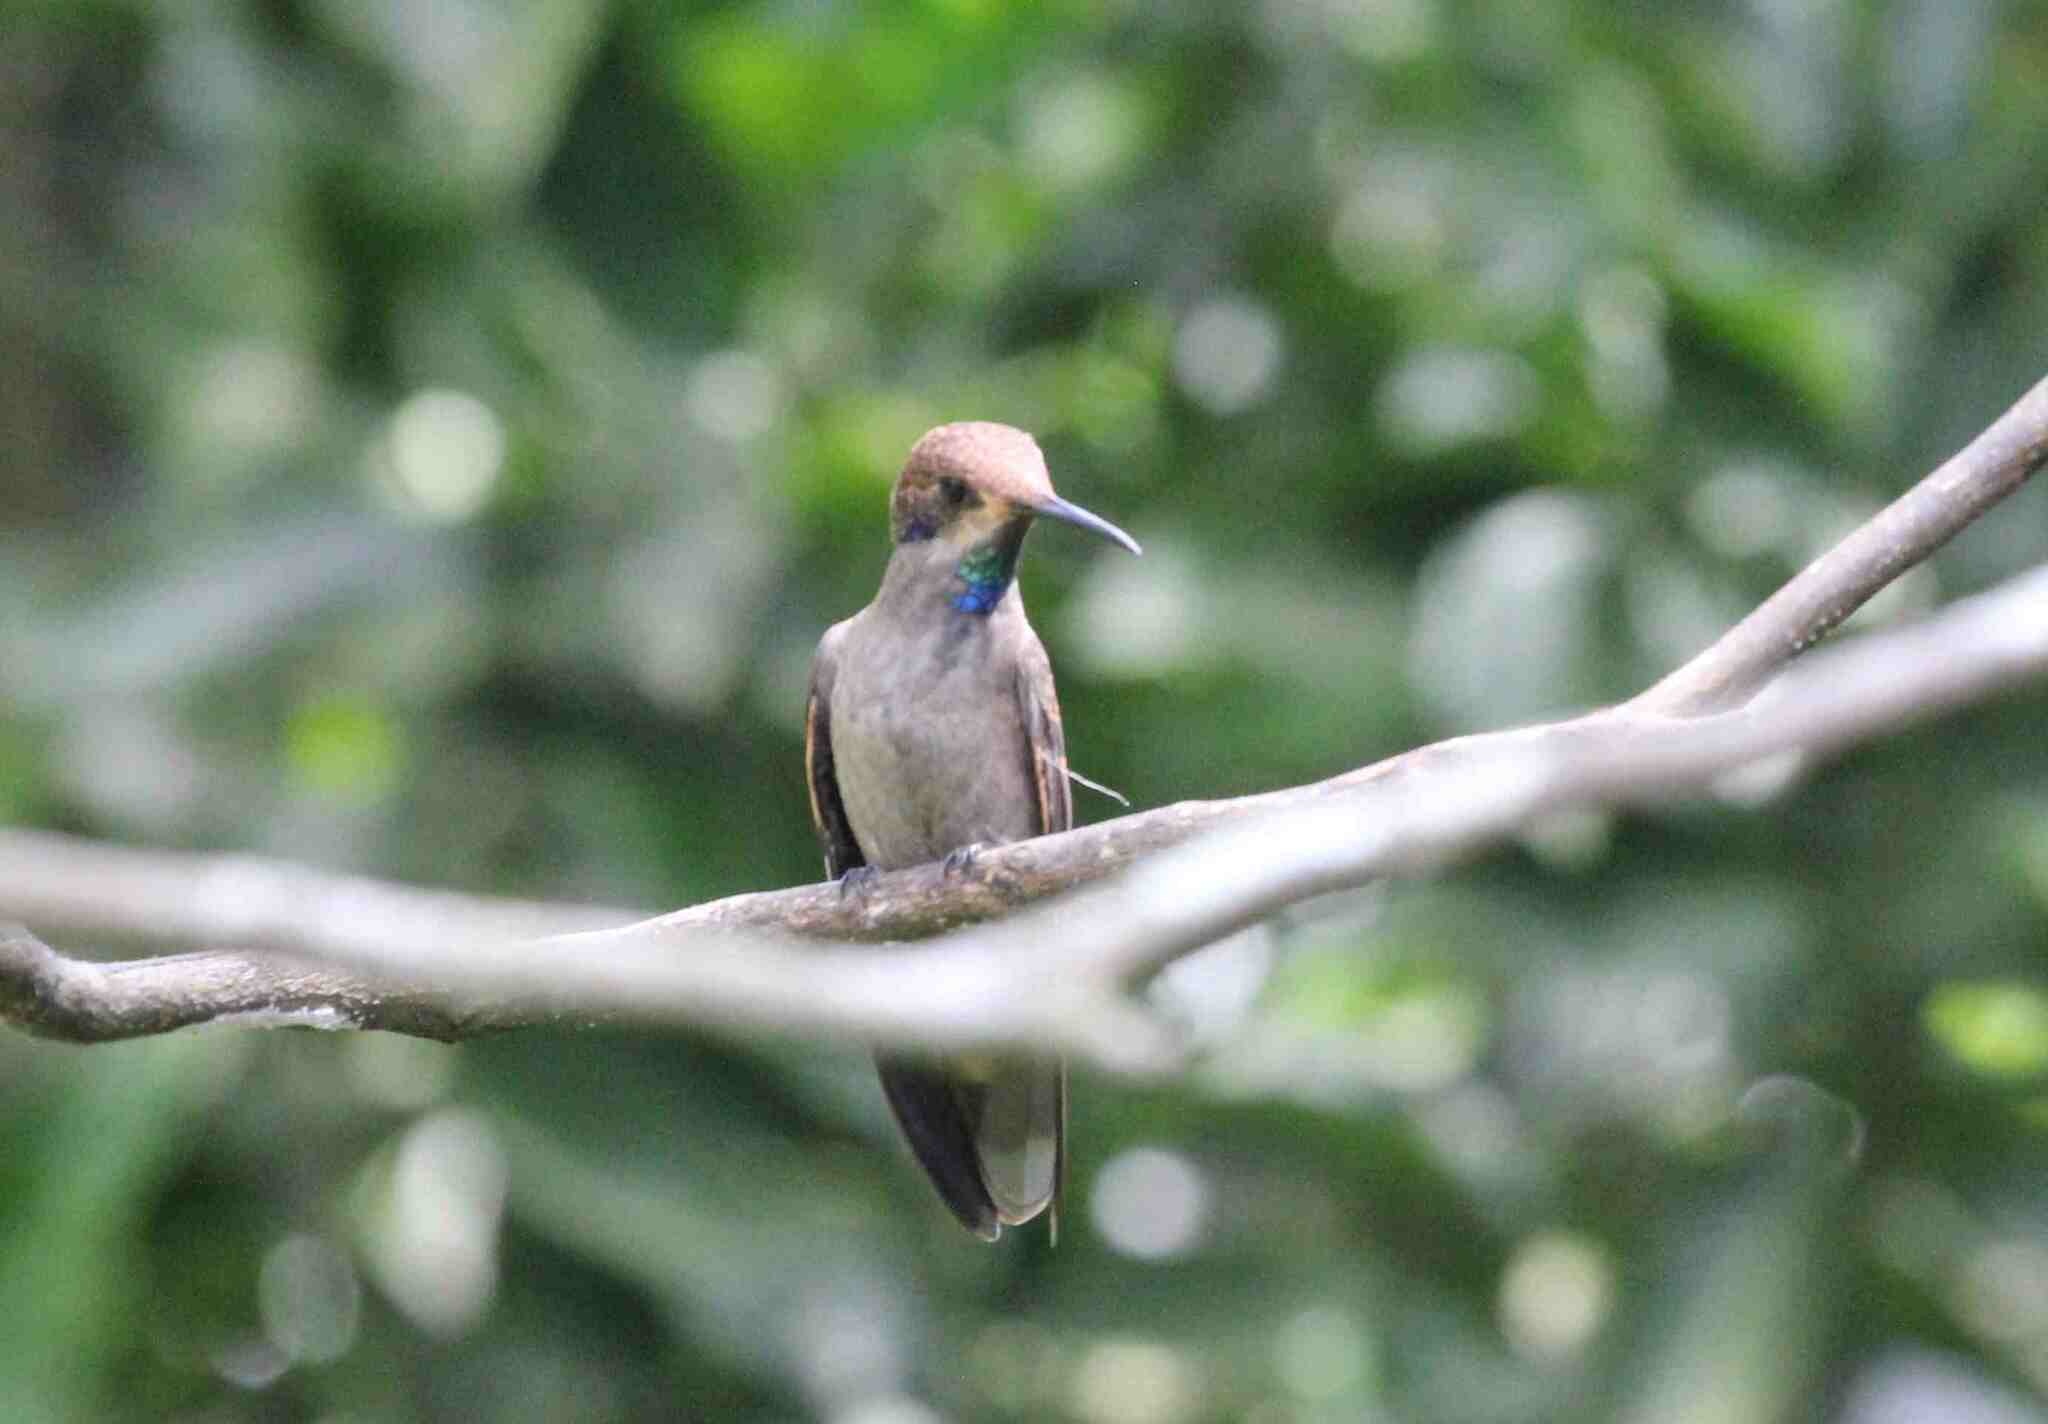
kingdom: Animalia
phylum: Chordata
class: Aves
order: Apodiformes
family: Trochilidae
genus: Colibri
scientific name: Colibri delphinae
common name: Brown violetear
